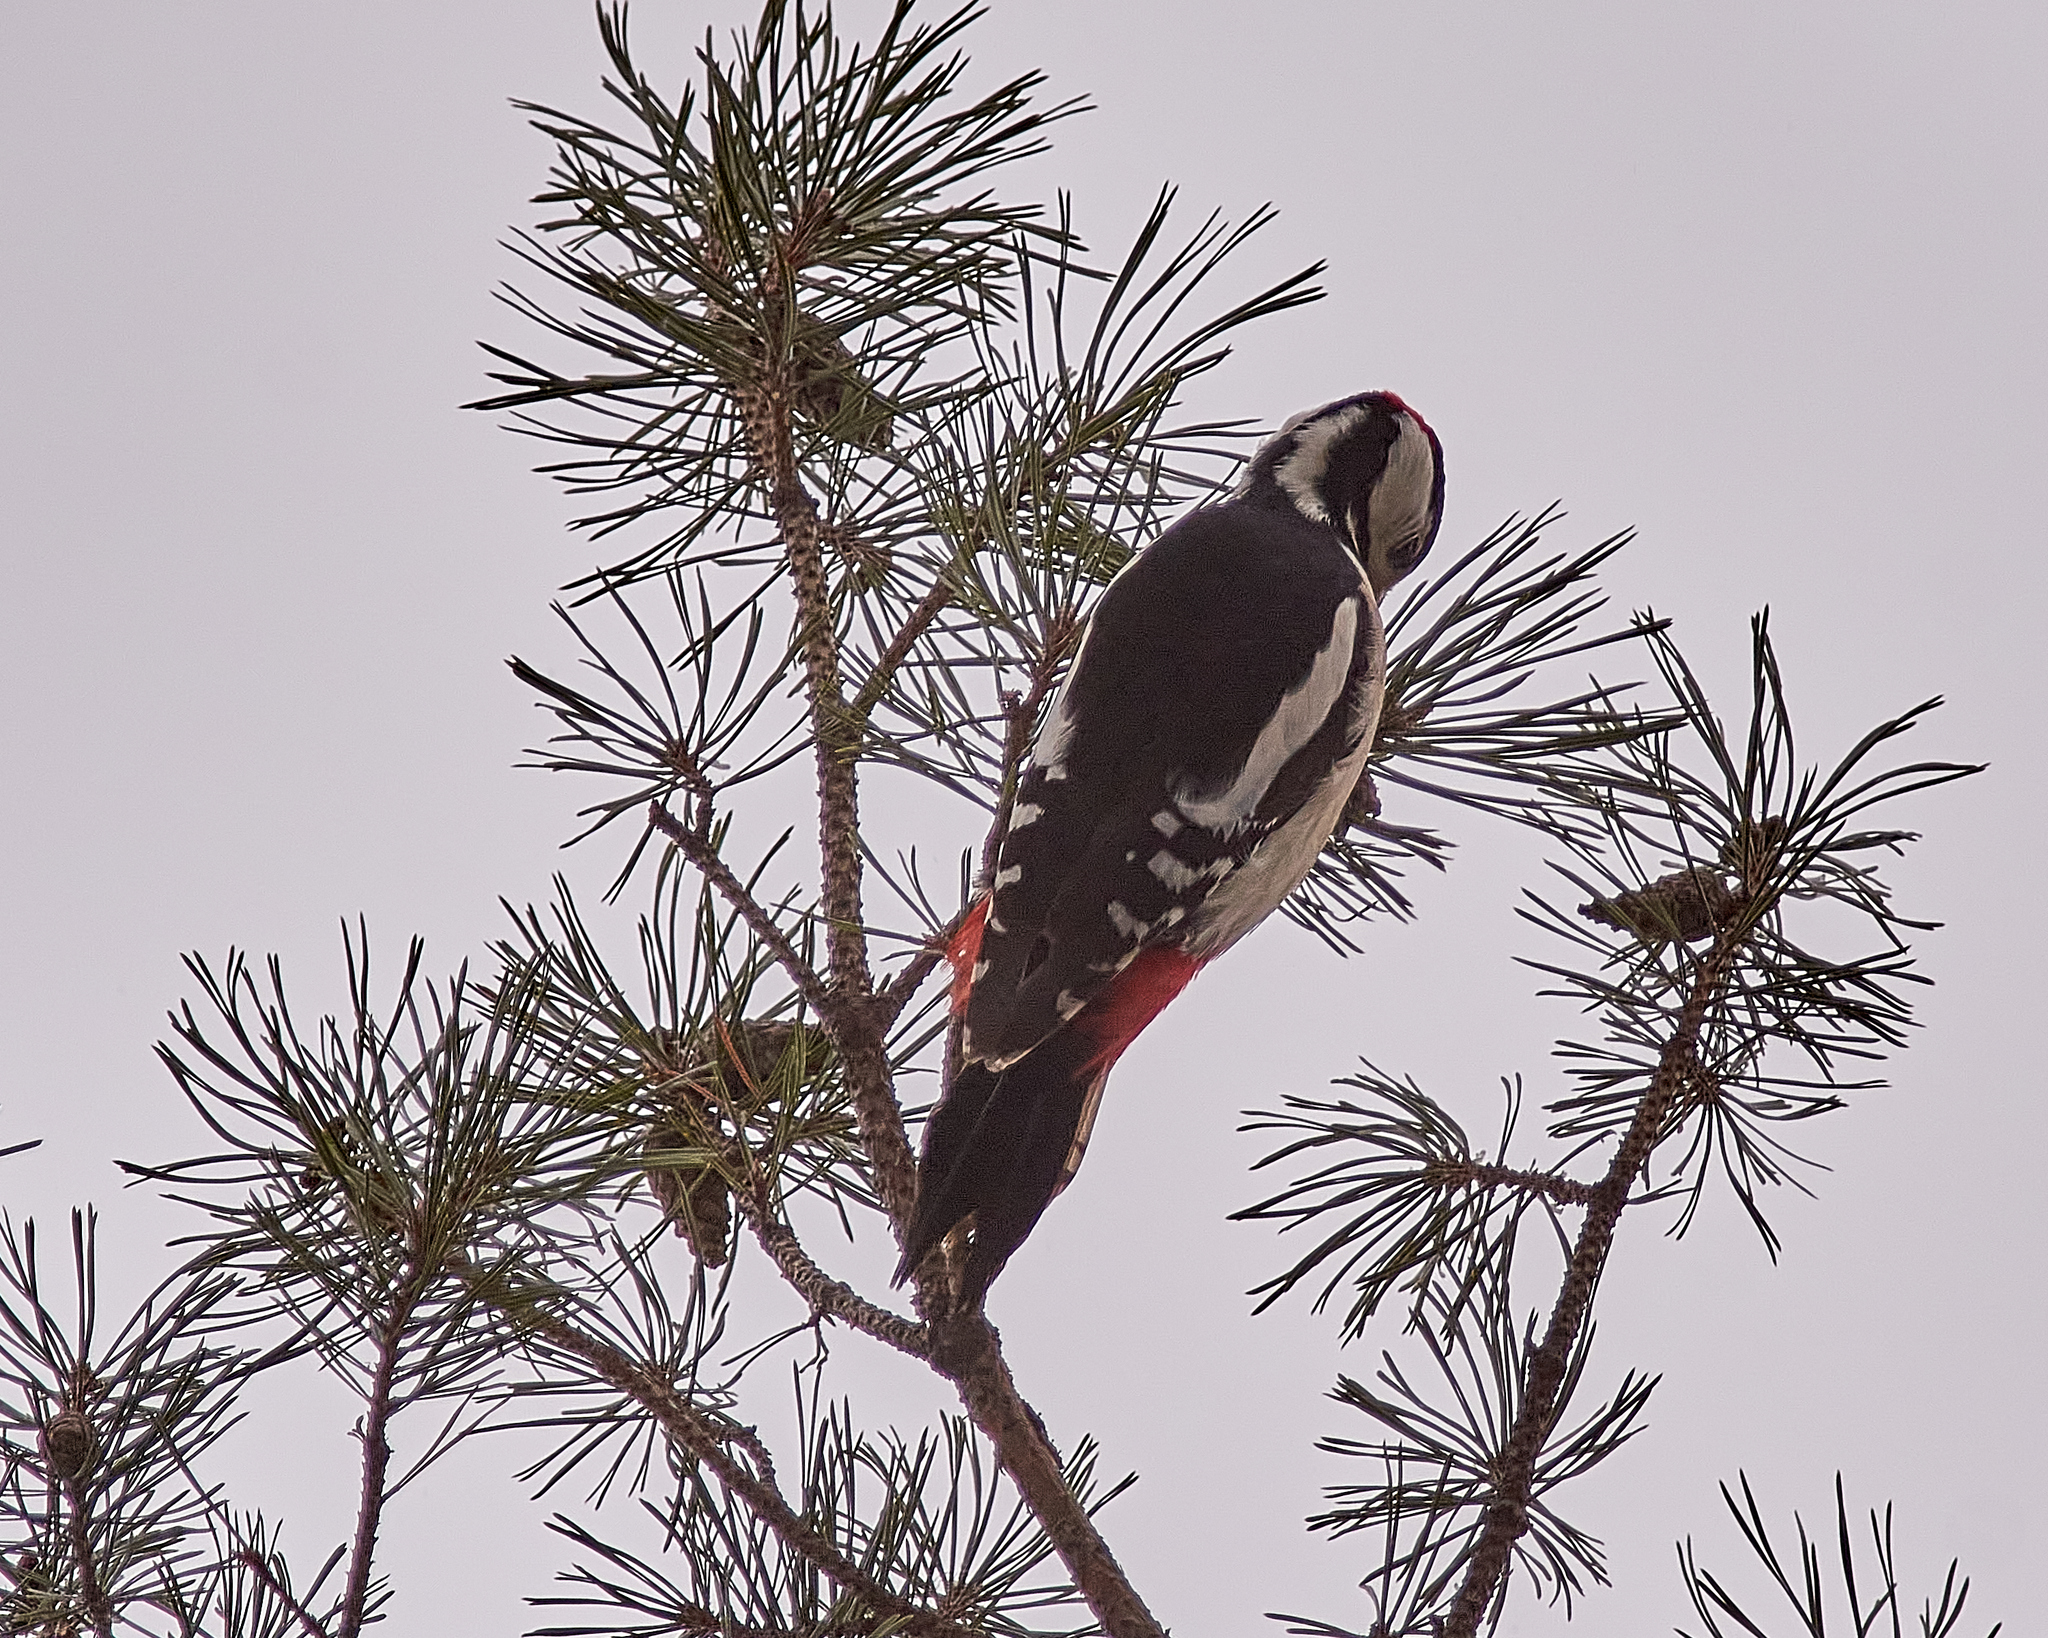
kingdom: Animalia
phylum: Chordata
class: Aves
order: Piciformes
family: Picidae
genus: Dendrocopos
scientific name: Dendrocopos major
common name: Great spotted woodpecker
